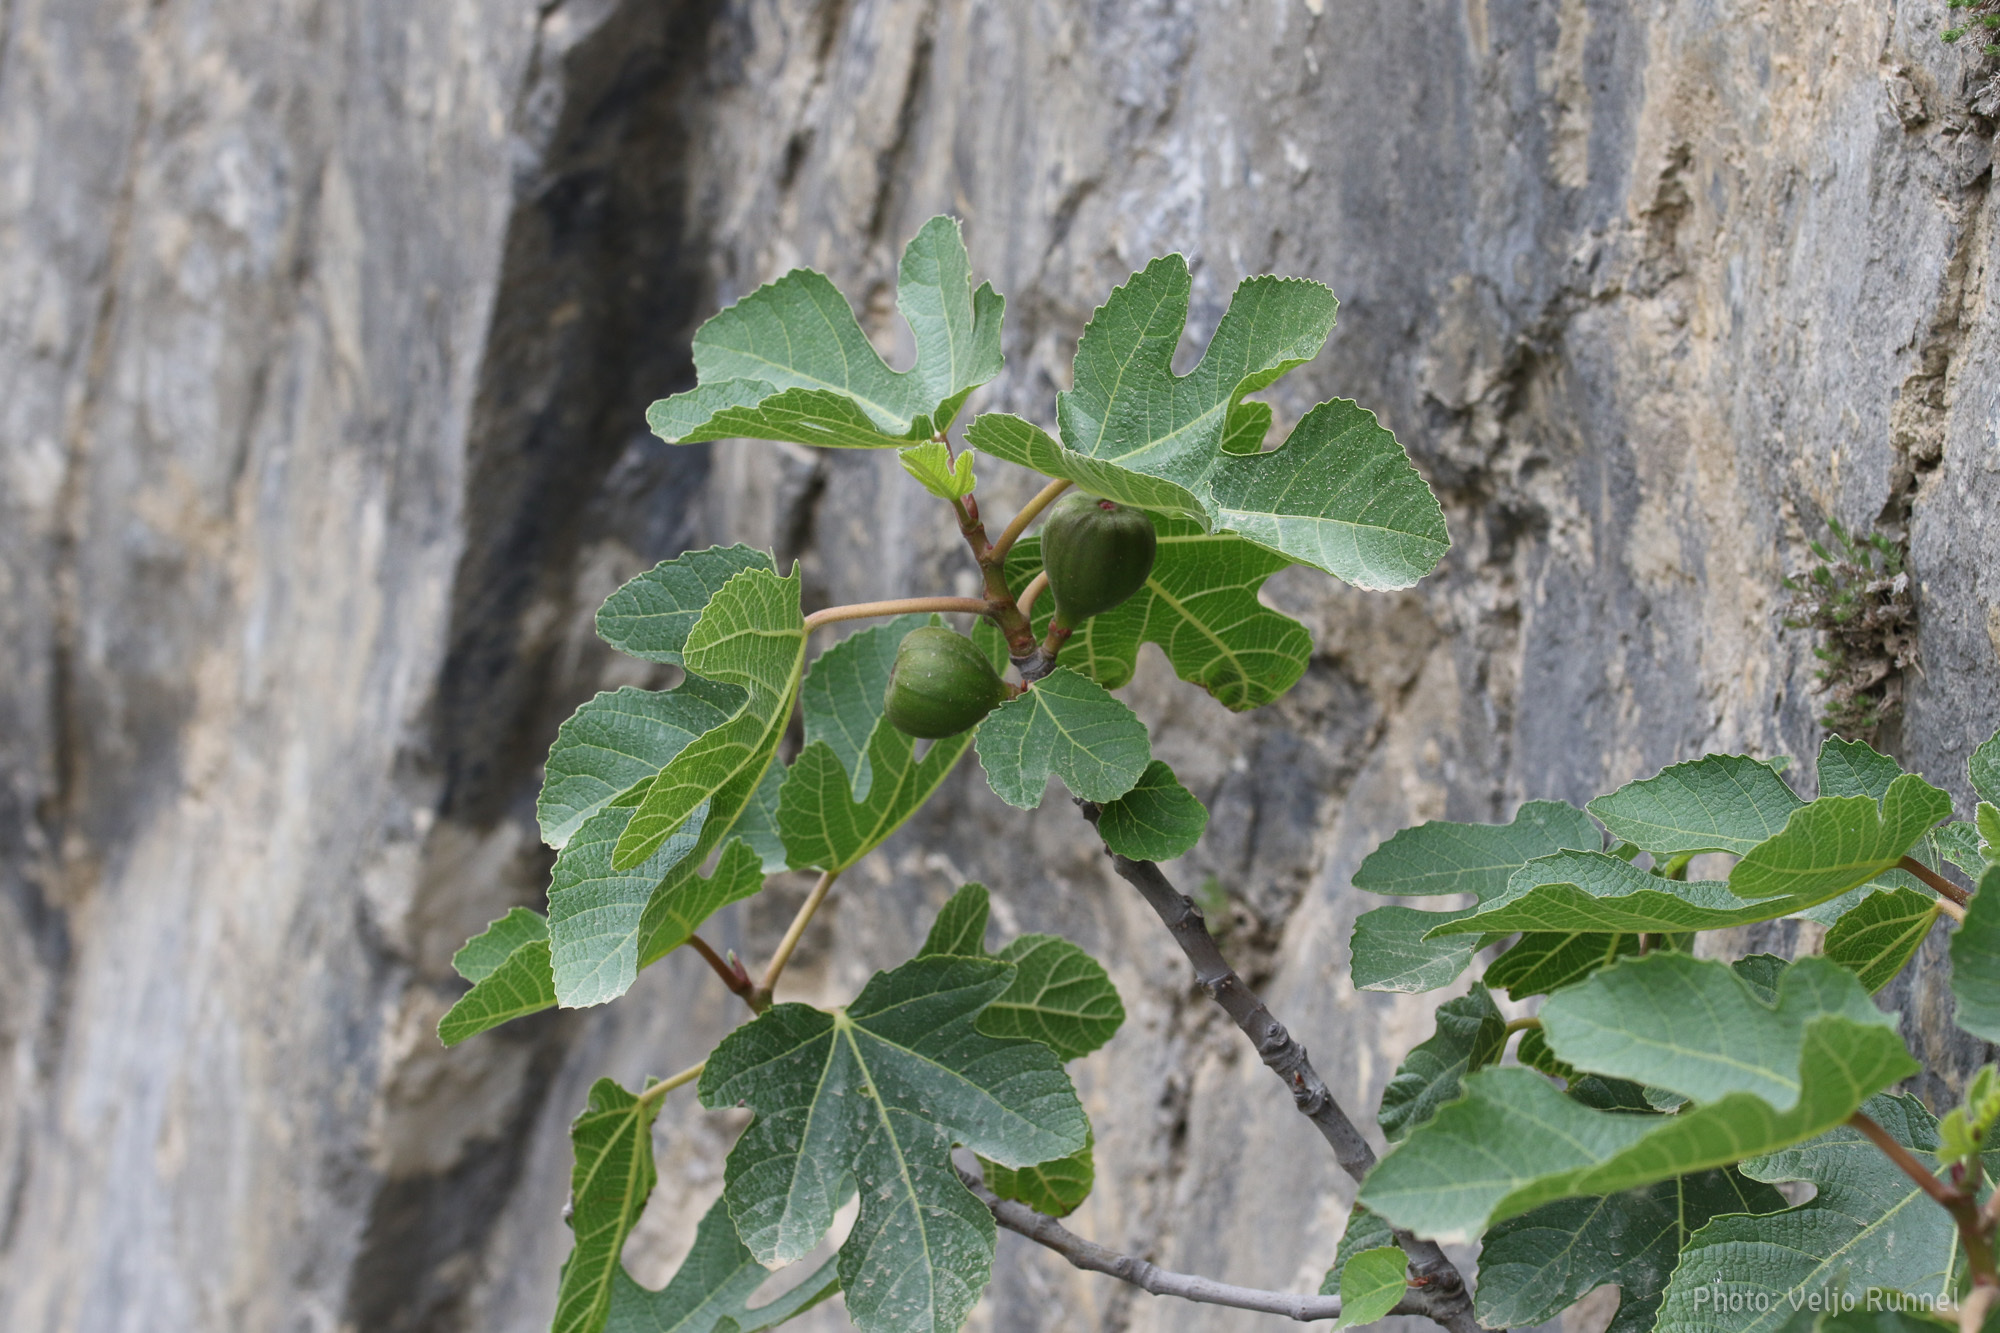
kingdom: Plantae
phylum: Tracheophyta
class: Magnoliopsida
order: Rosales
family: Moraceae
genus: Ficus
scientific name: Ficus carica
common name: Fig
